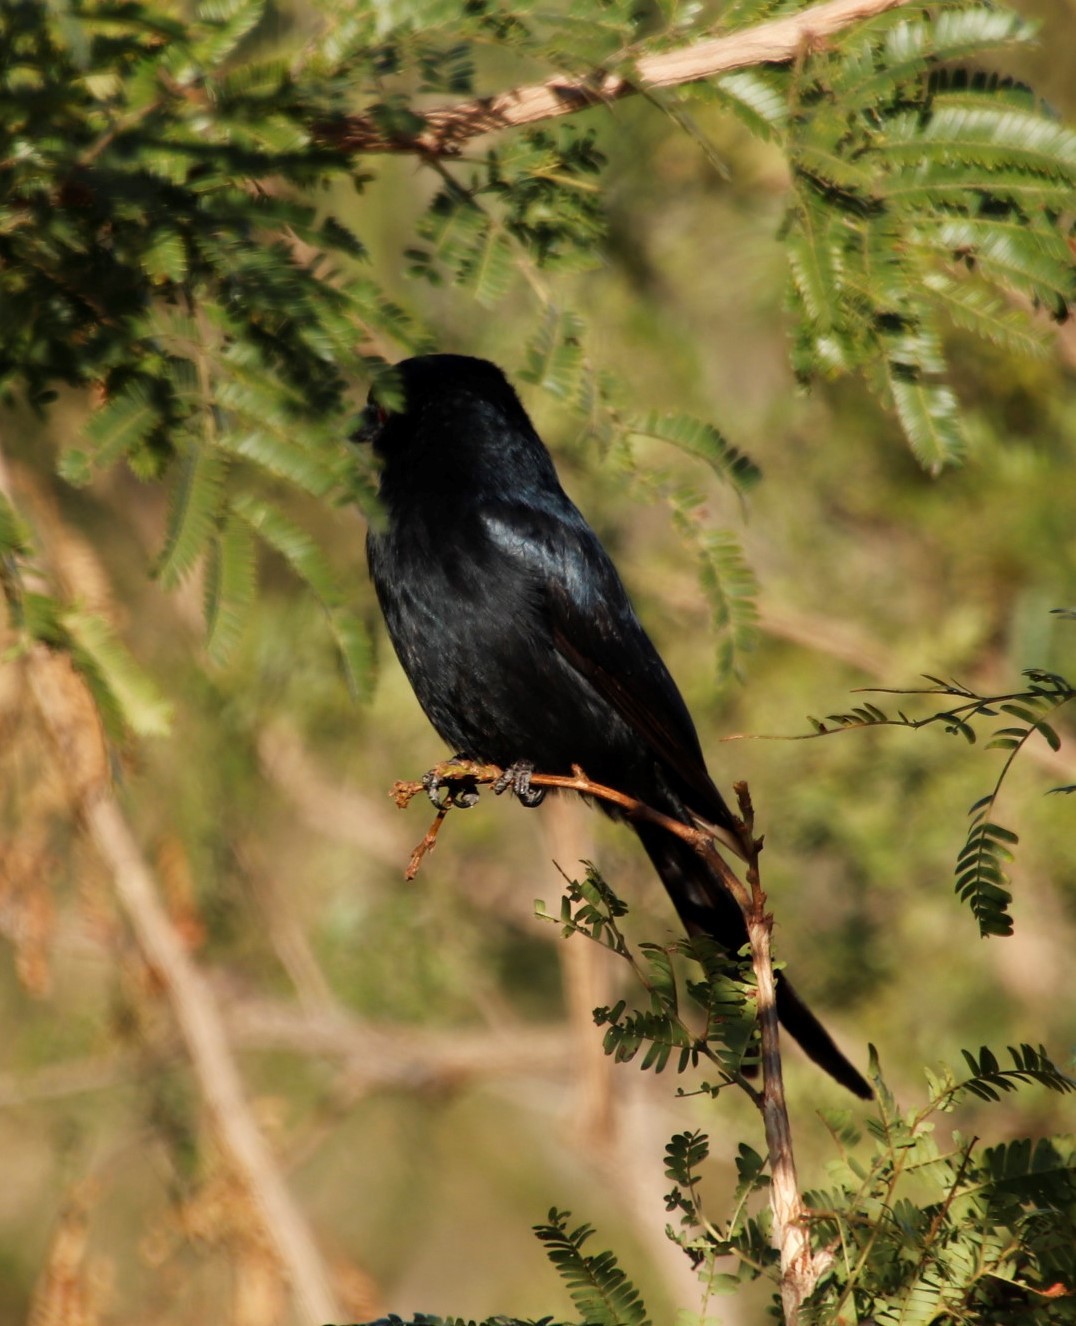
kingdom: Animalia
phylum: Chordata
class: Aves
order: Passeriformes
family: Dicruridae
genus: Dicrurus
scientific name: Dicrurus adsimilis
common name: Fork-tailed drongo
